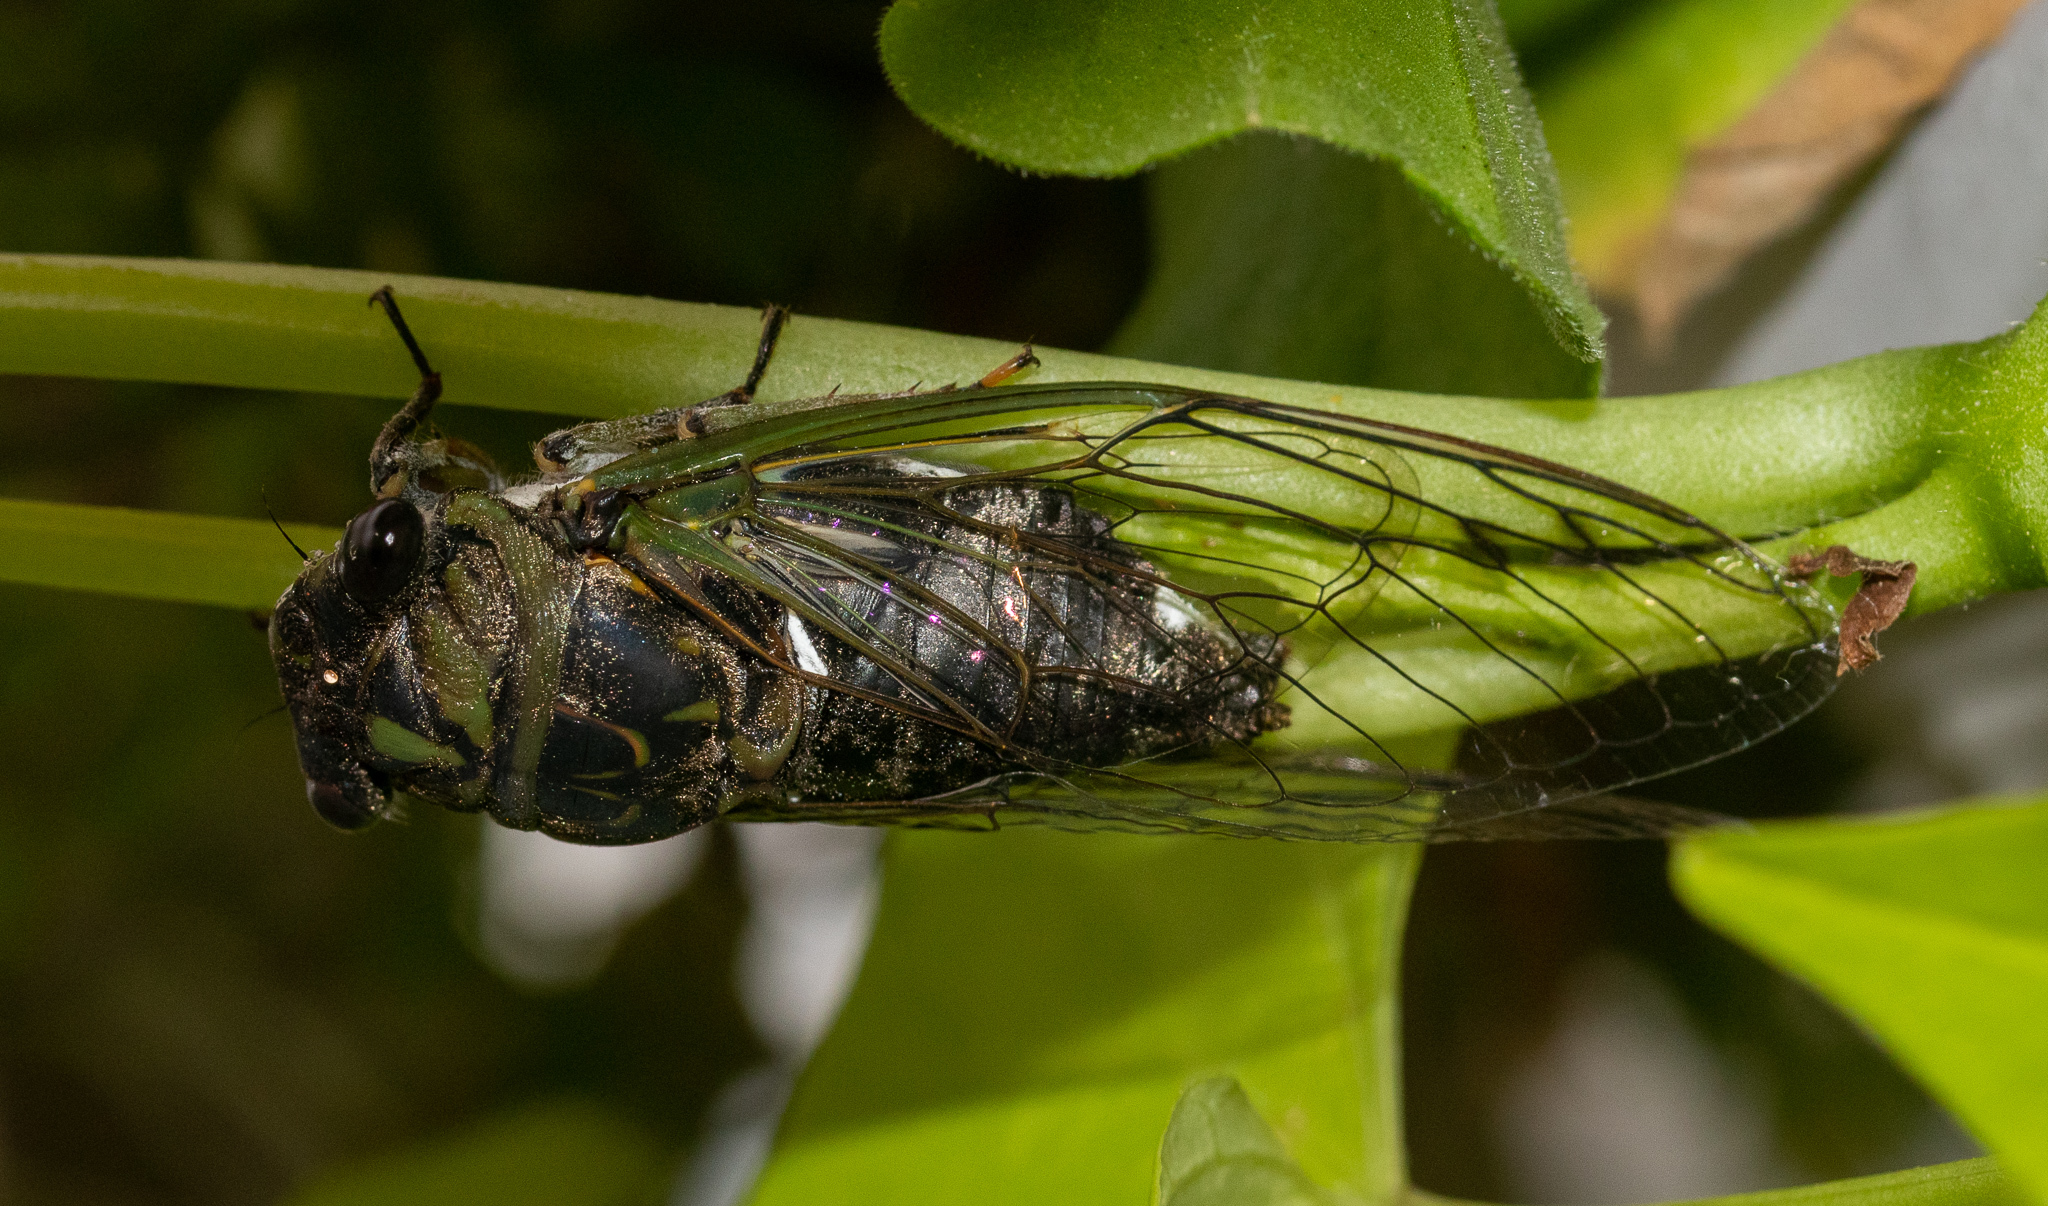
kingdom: Animalia
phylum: Arthropoda
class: Insecta
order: Hemiptera
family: Cicadidae
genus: Neotibicen
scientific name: Neotibicen canicularis
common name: God-day cicada
